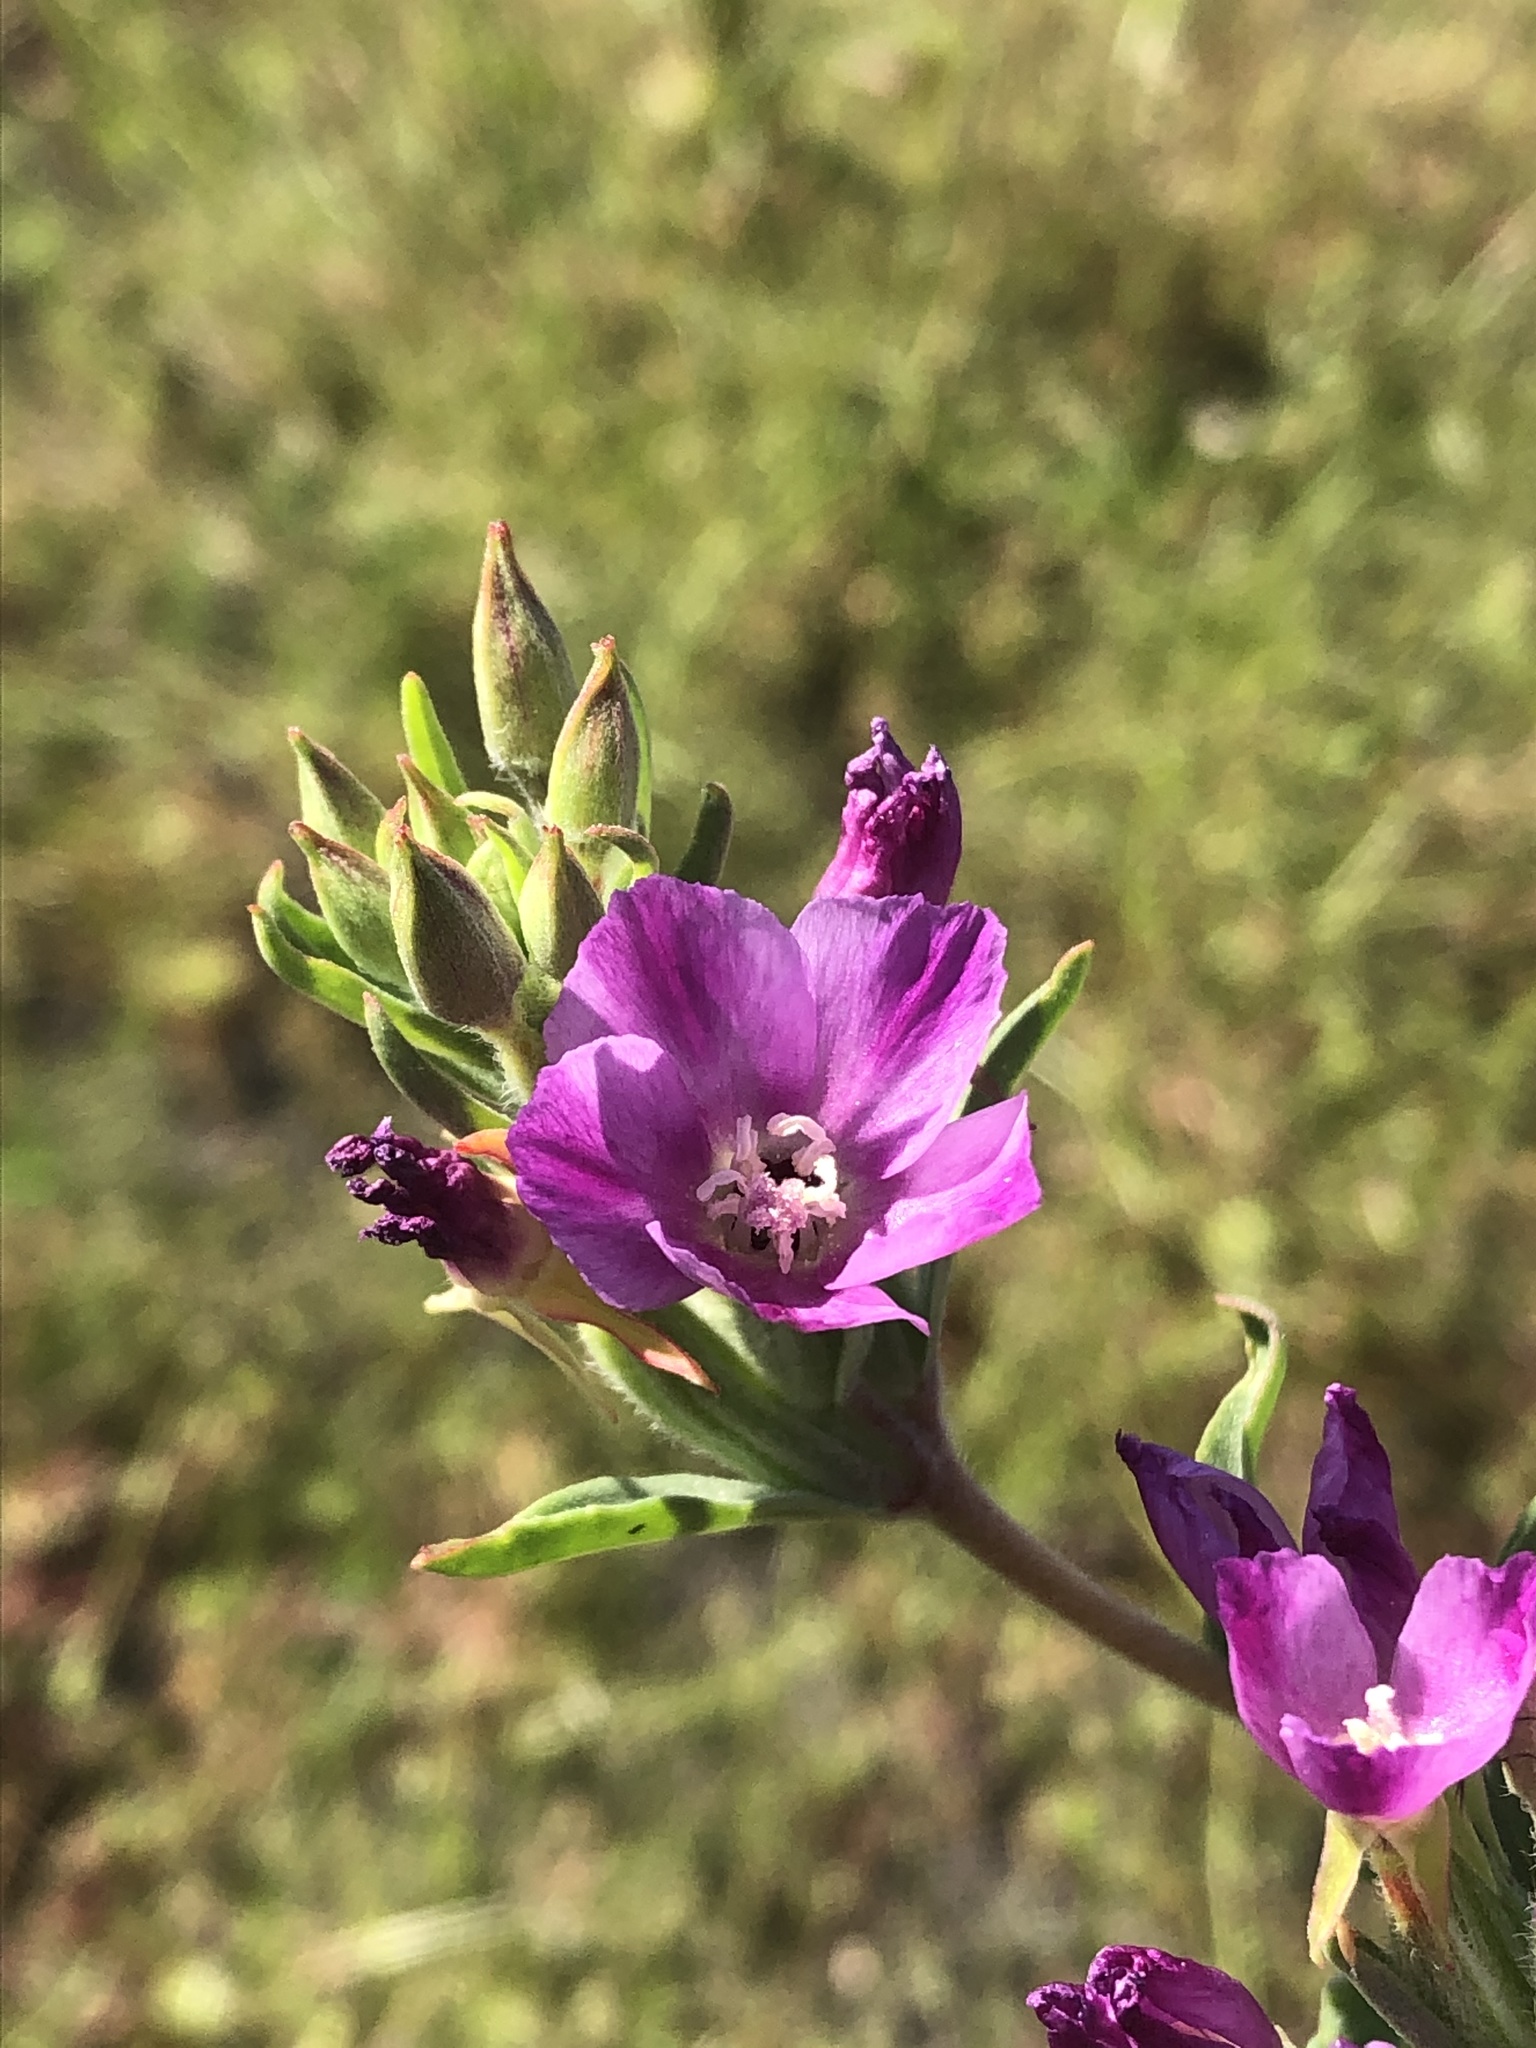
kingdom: Plantae
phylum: Tracheophyta
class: Magnoliopsida
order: Myrtales
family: Onagraceae
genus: Clarkia
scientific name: Clarkia purpurea
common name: Purple clarkia
